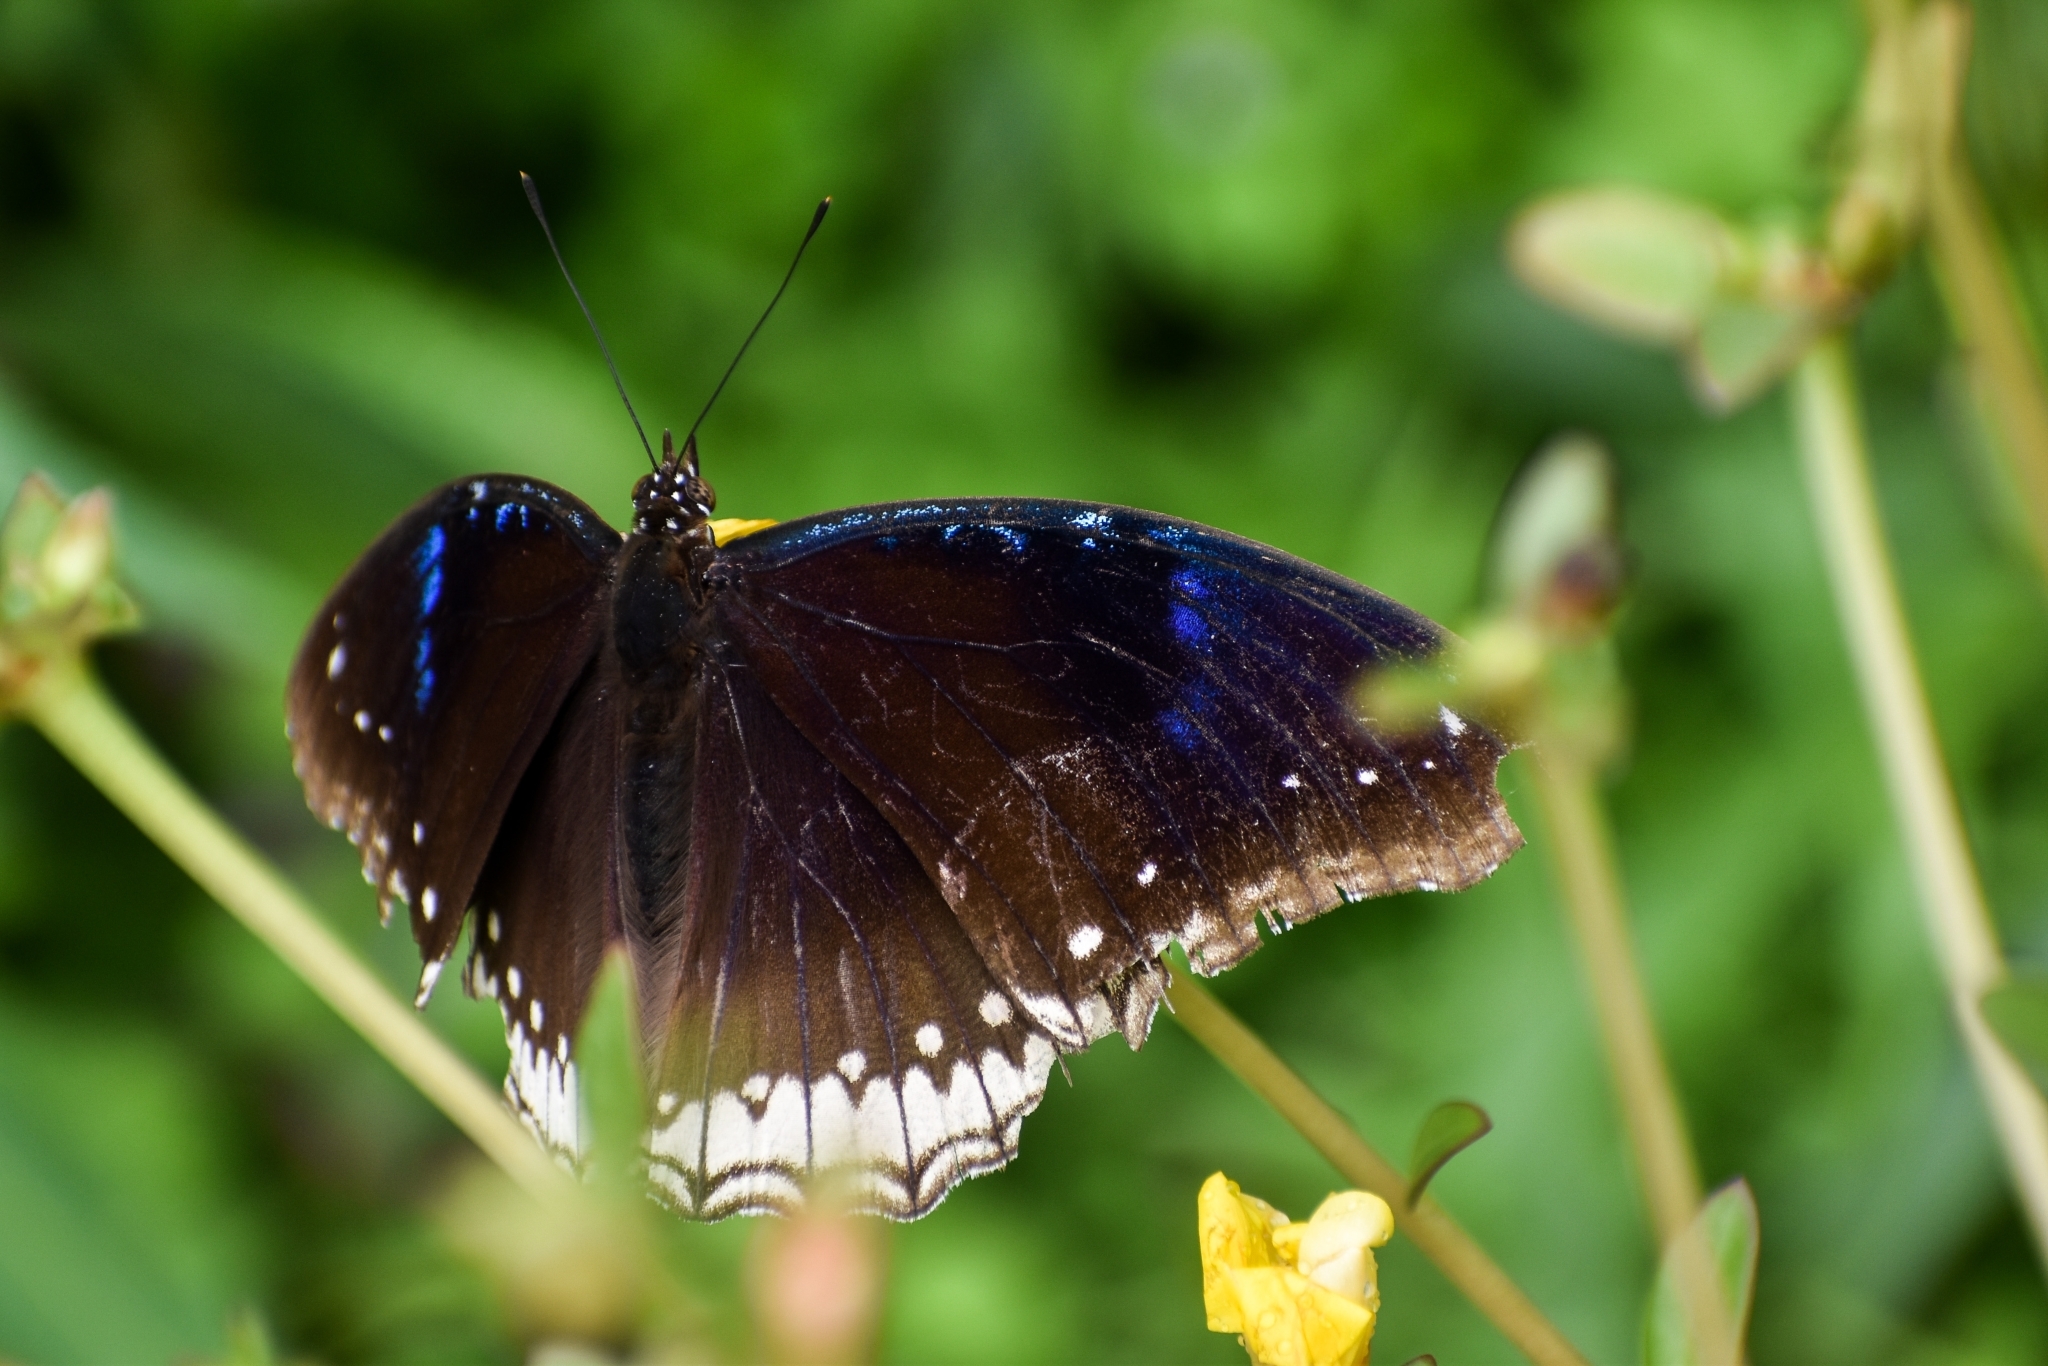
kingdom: Animalia
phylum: Arthropoda
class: Insecta
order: Lepidoptera
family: Nymphalidae
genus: Hypolimnas
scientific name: Hypolimnas bolina
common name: Great eggfly
